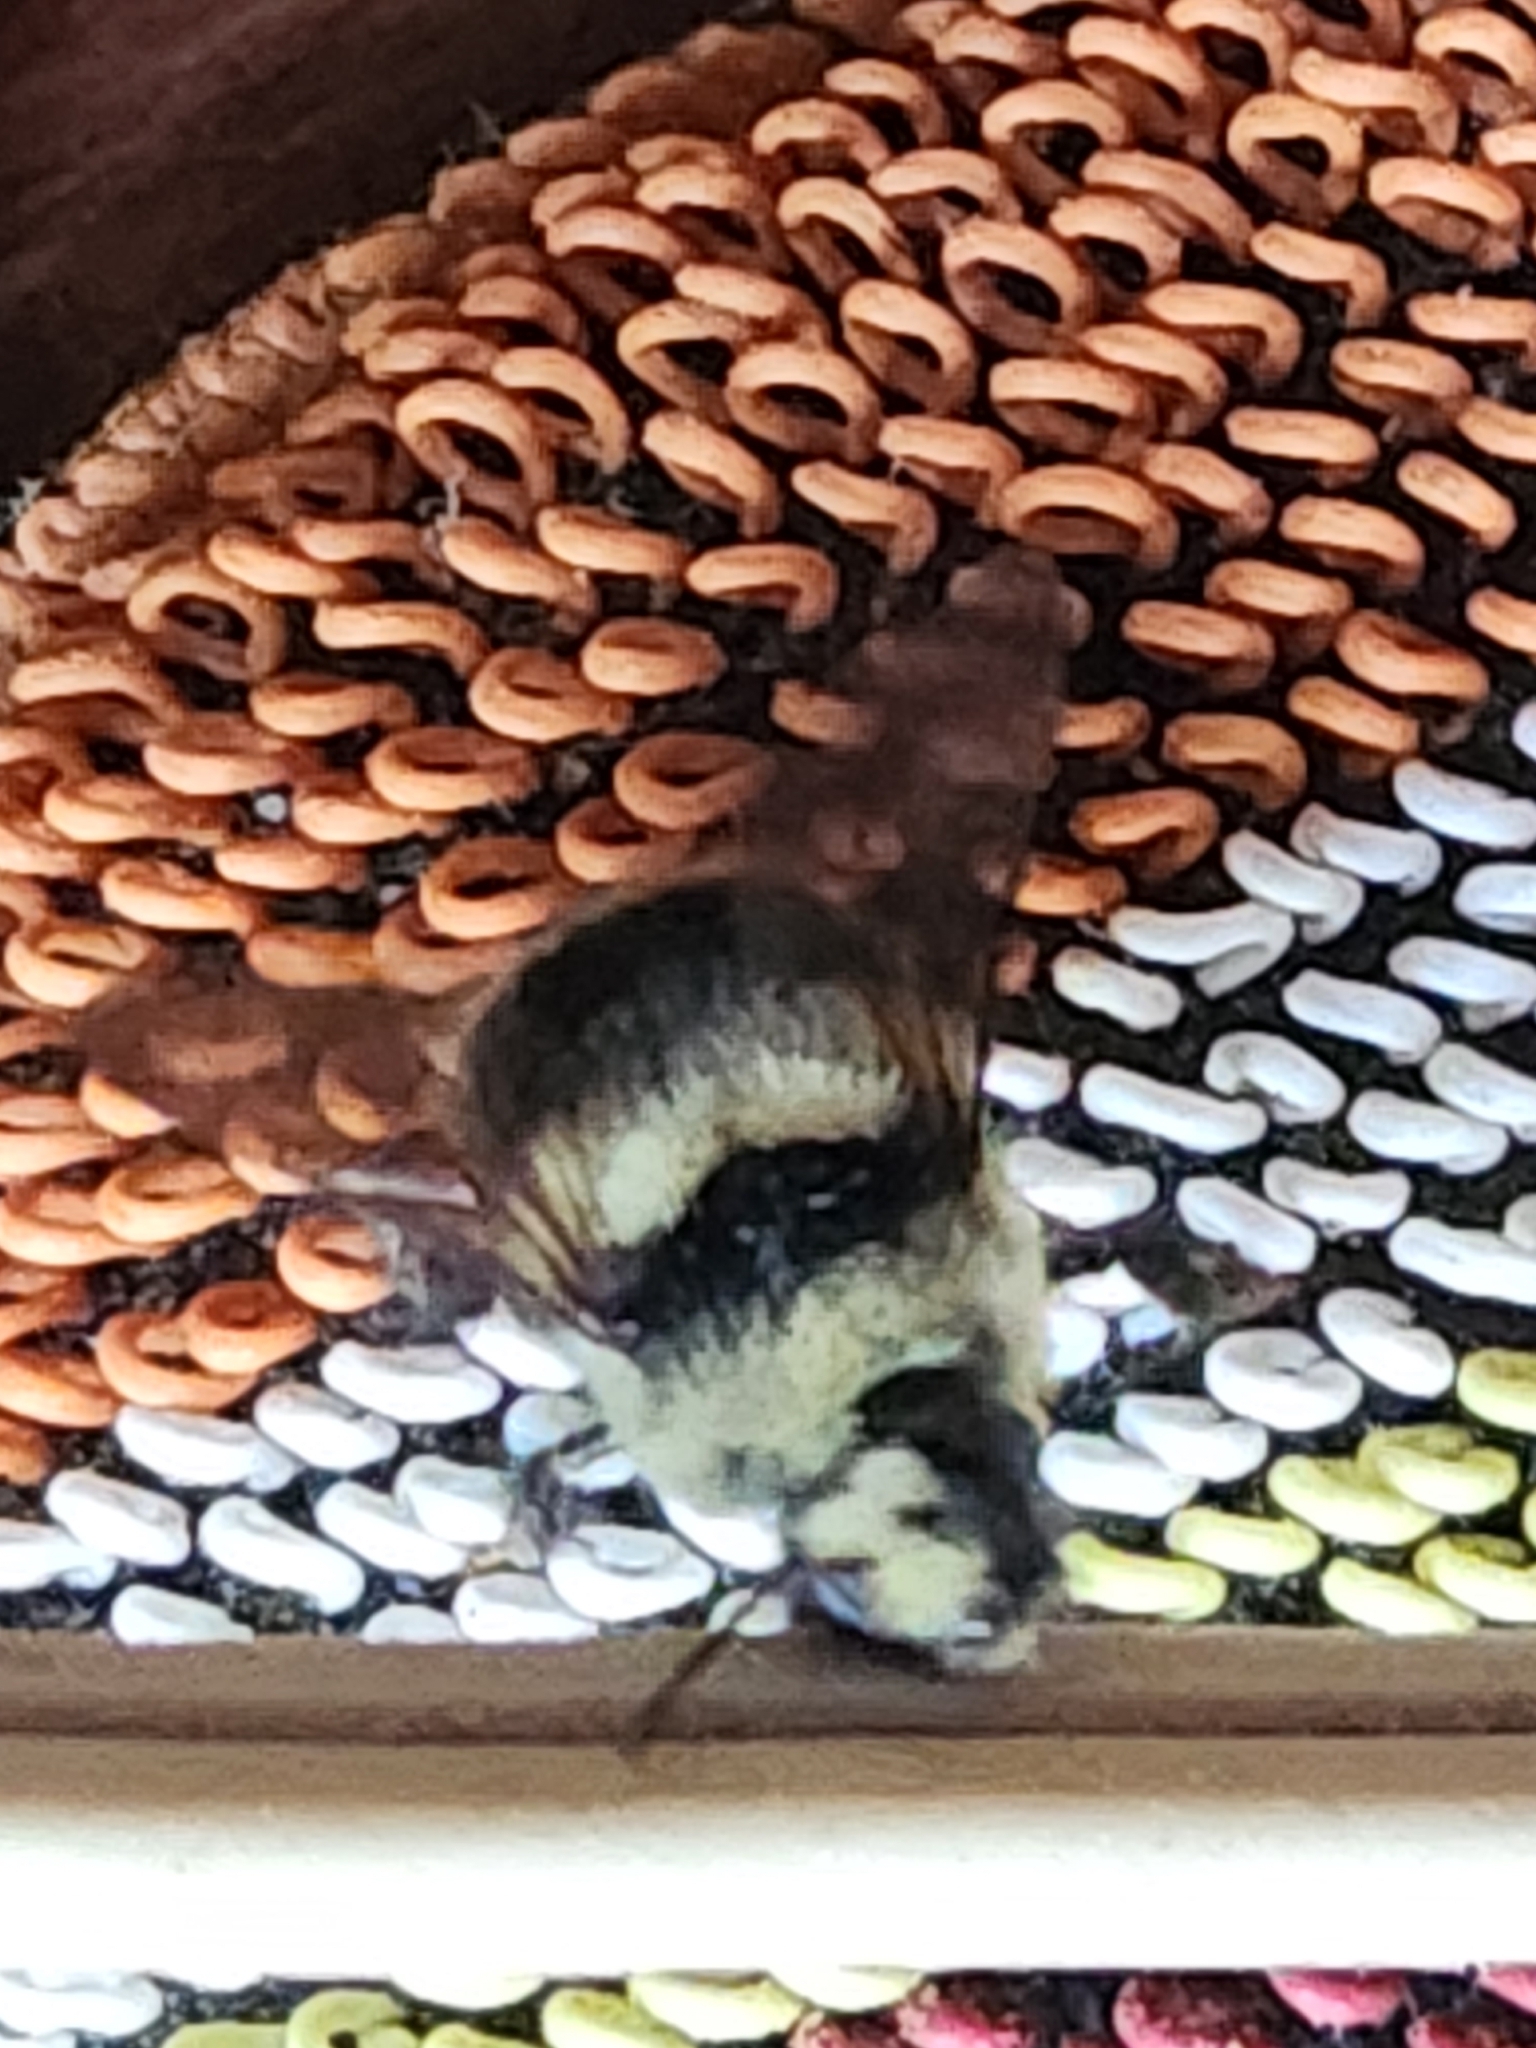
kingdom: Animalia
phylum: Arthropoda
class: Insecta
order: Hymenoptera
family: Apidae
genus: Bombus
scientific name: Bombus melanopygus
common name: Black tail bumble bee
